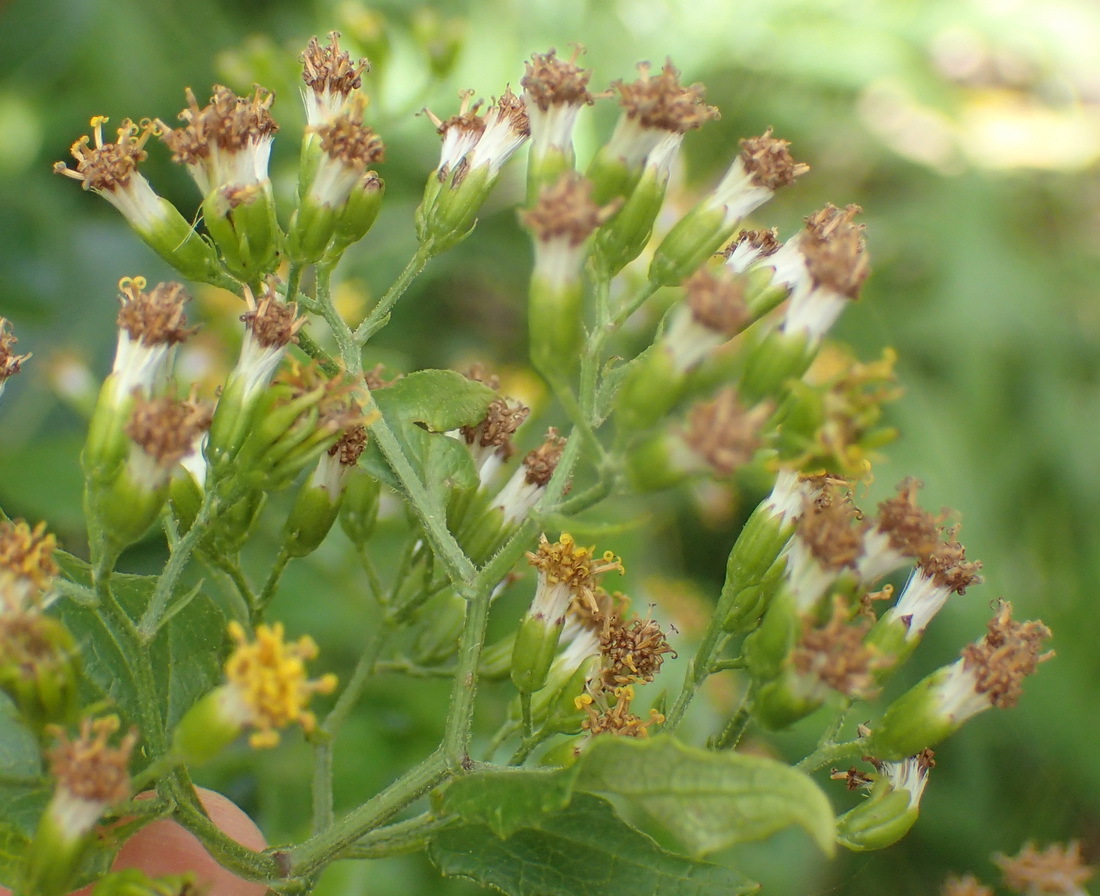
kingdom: Plantae
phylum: Tracheophyta
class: Magnoliopsida
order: Asterales
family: Asteraceae
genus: Senecio
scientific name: Senecio deltoideus
